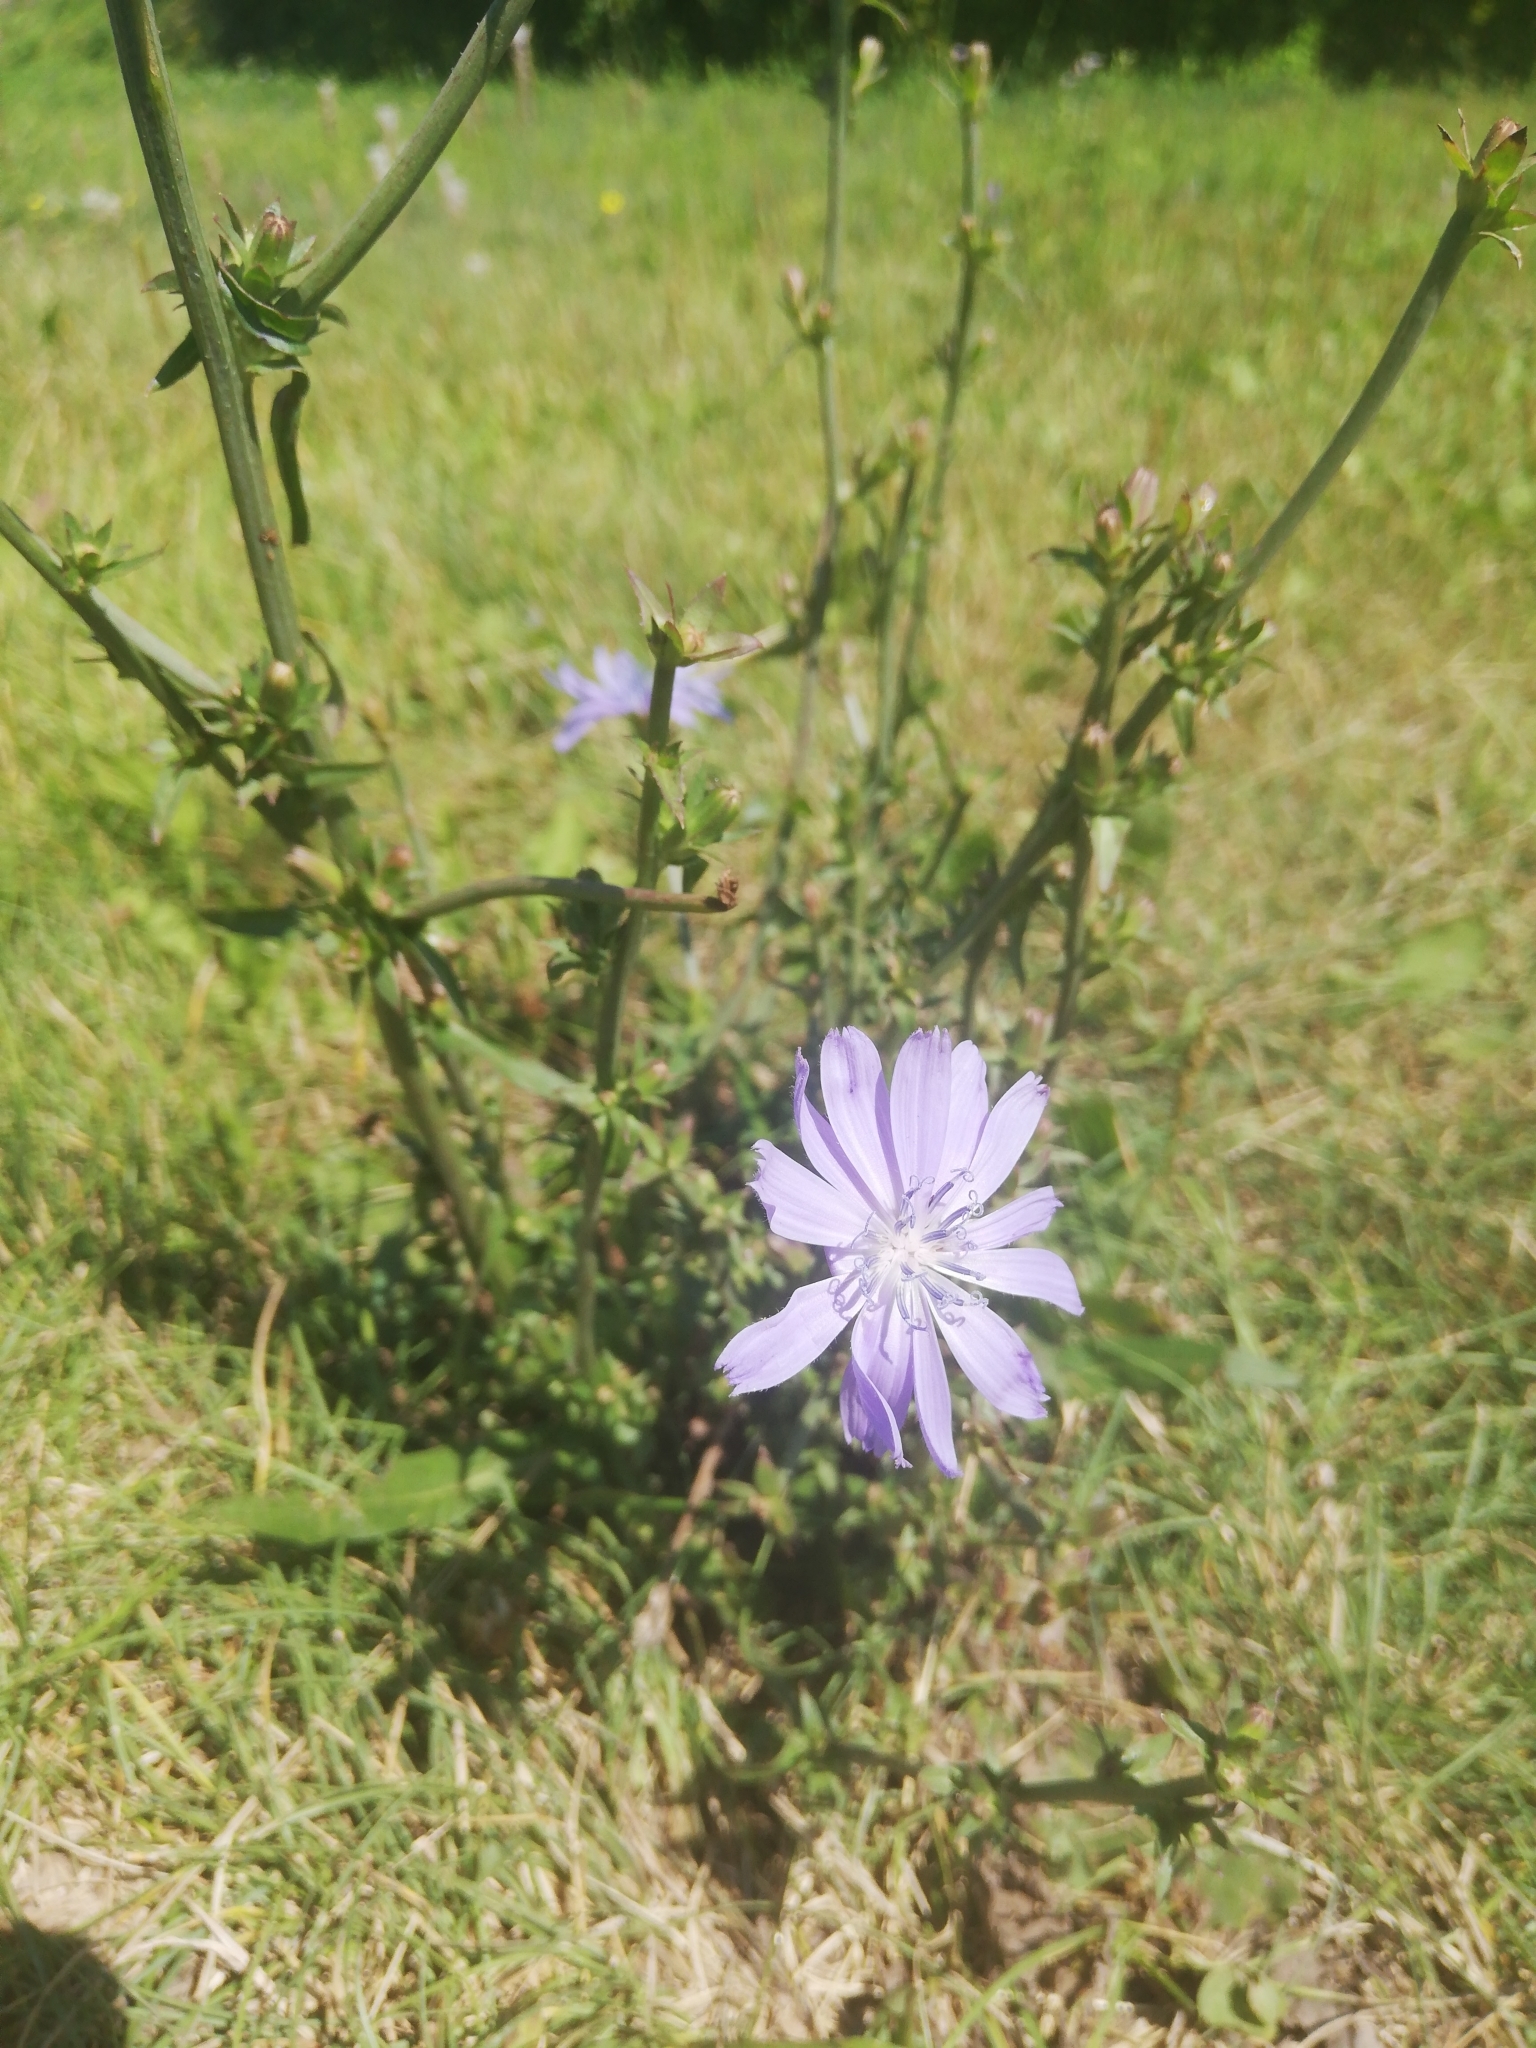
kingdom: Plantae
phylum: Tracheophyta
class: Magnoliopsida
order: Asterales
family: Asteraceae
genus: Cichorium
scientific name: Cichorium intybus
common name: Chicory
